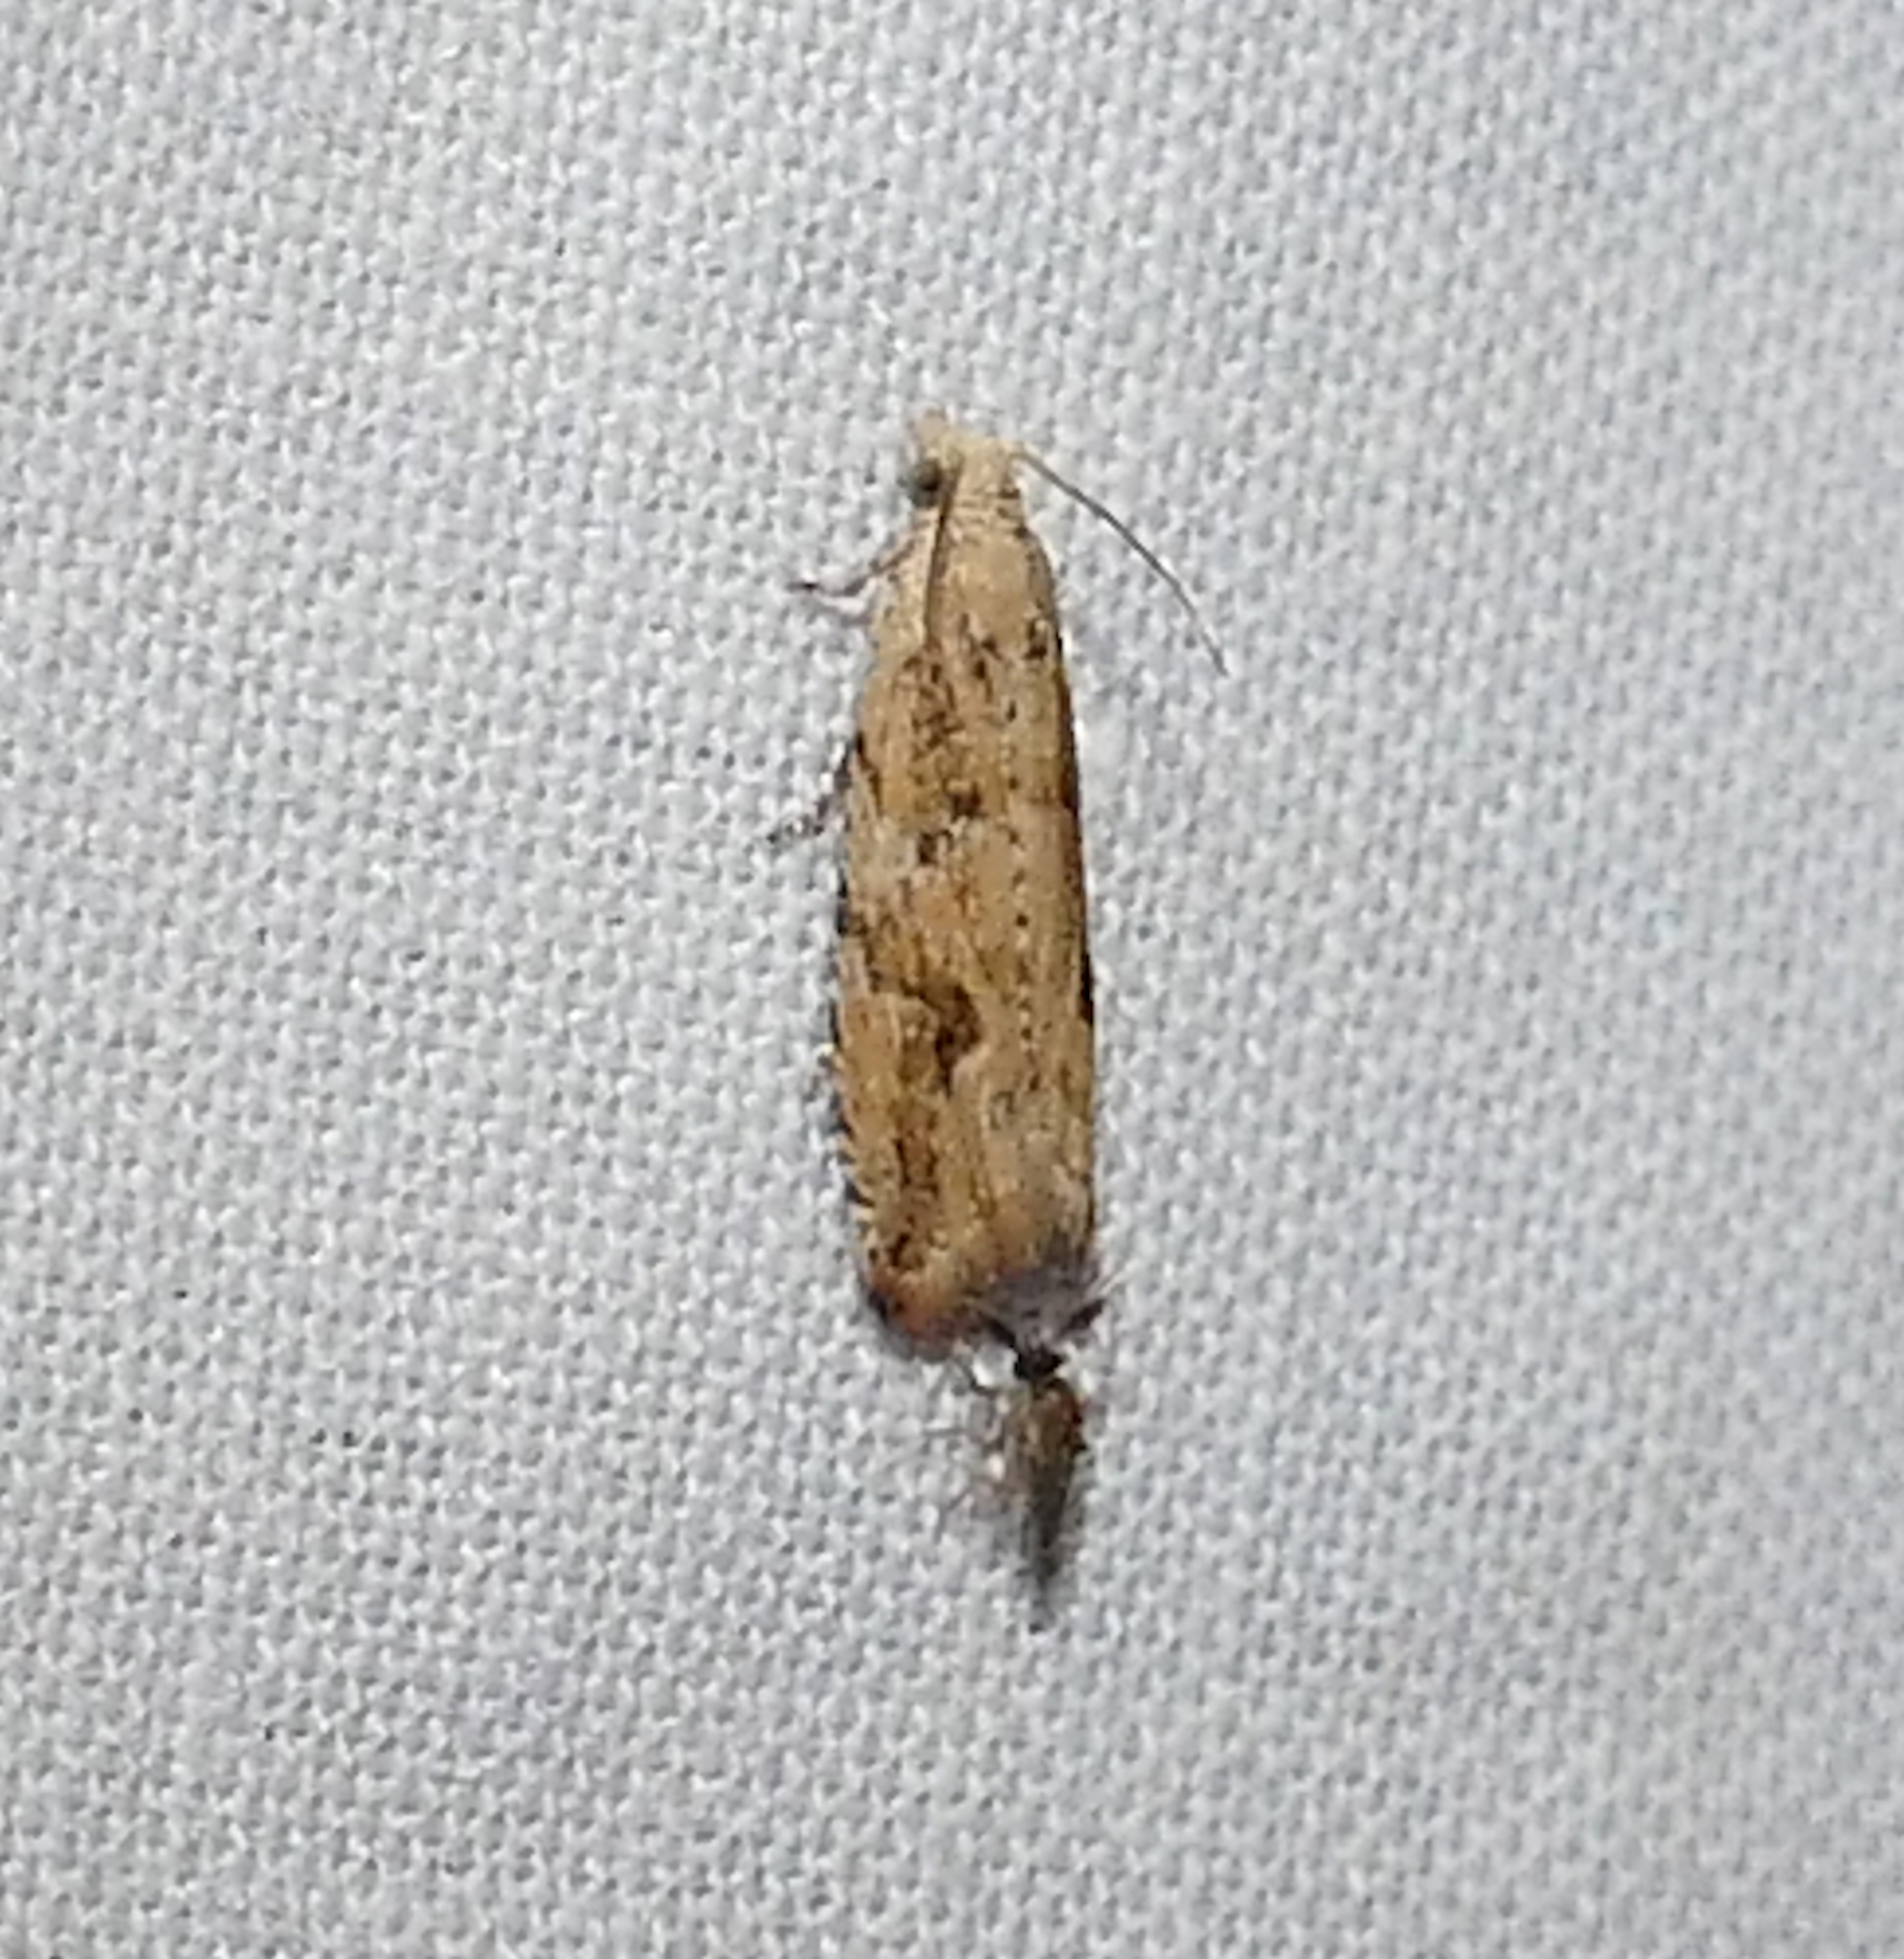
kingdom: Animalia
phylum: Arthropoda
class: Insecta
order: Lepidoptera
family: Tortricidae
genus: Bactra
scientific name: Bactra furfurana
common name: Mottled marble
